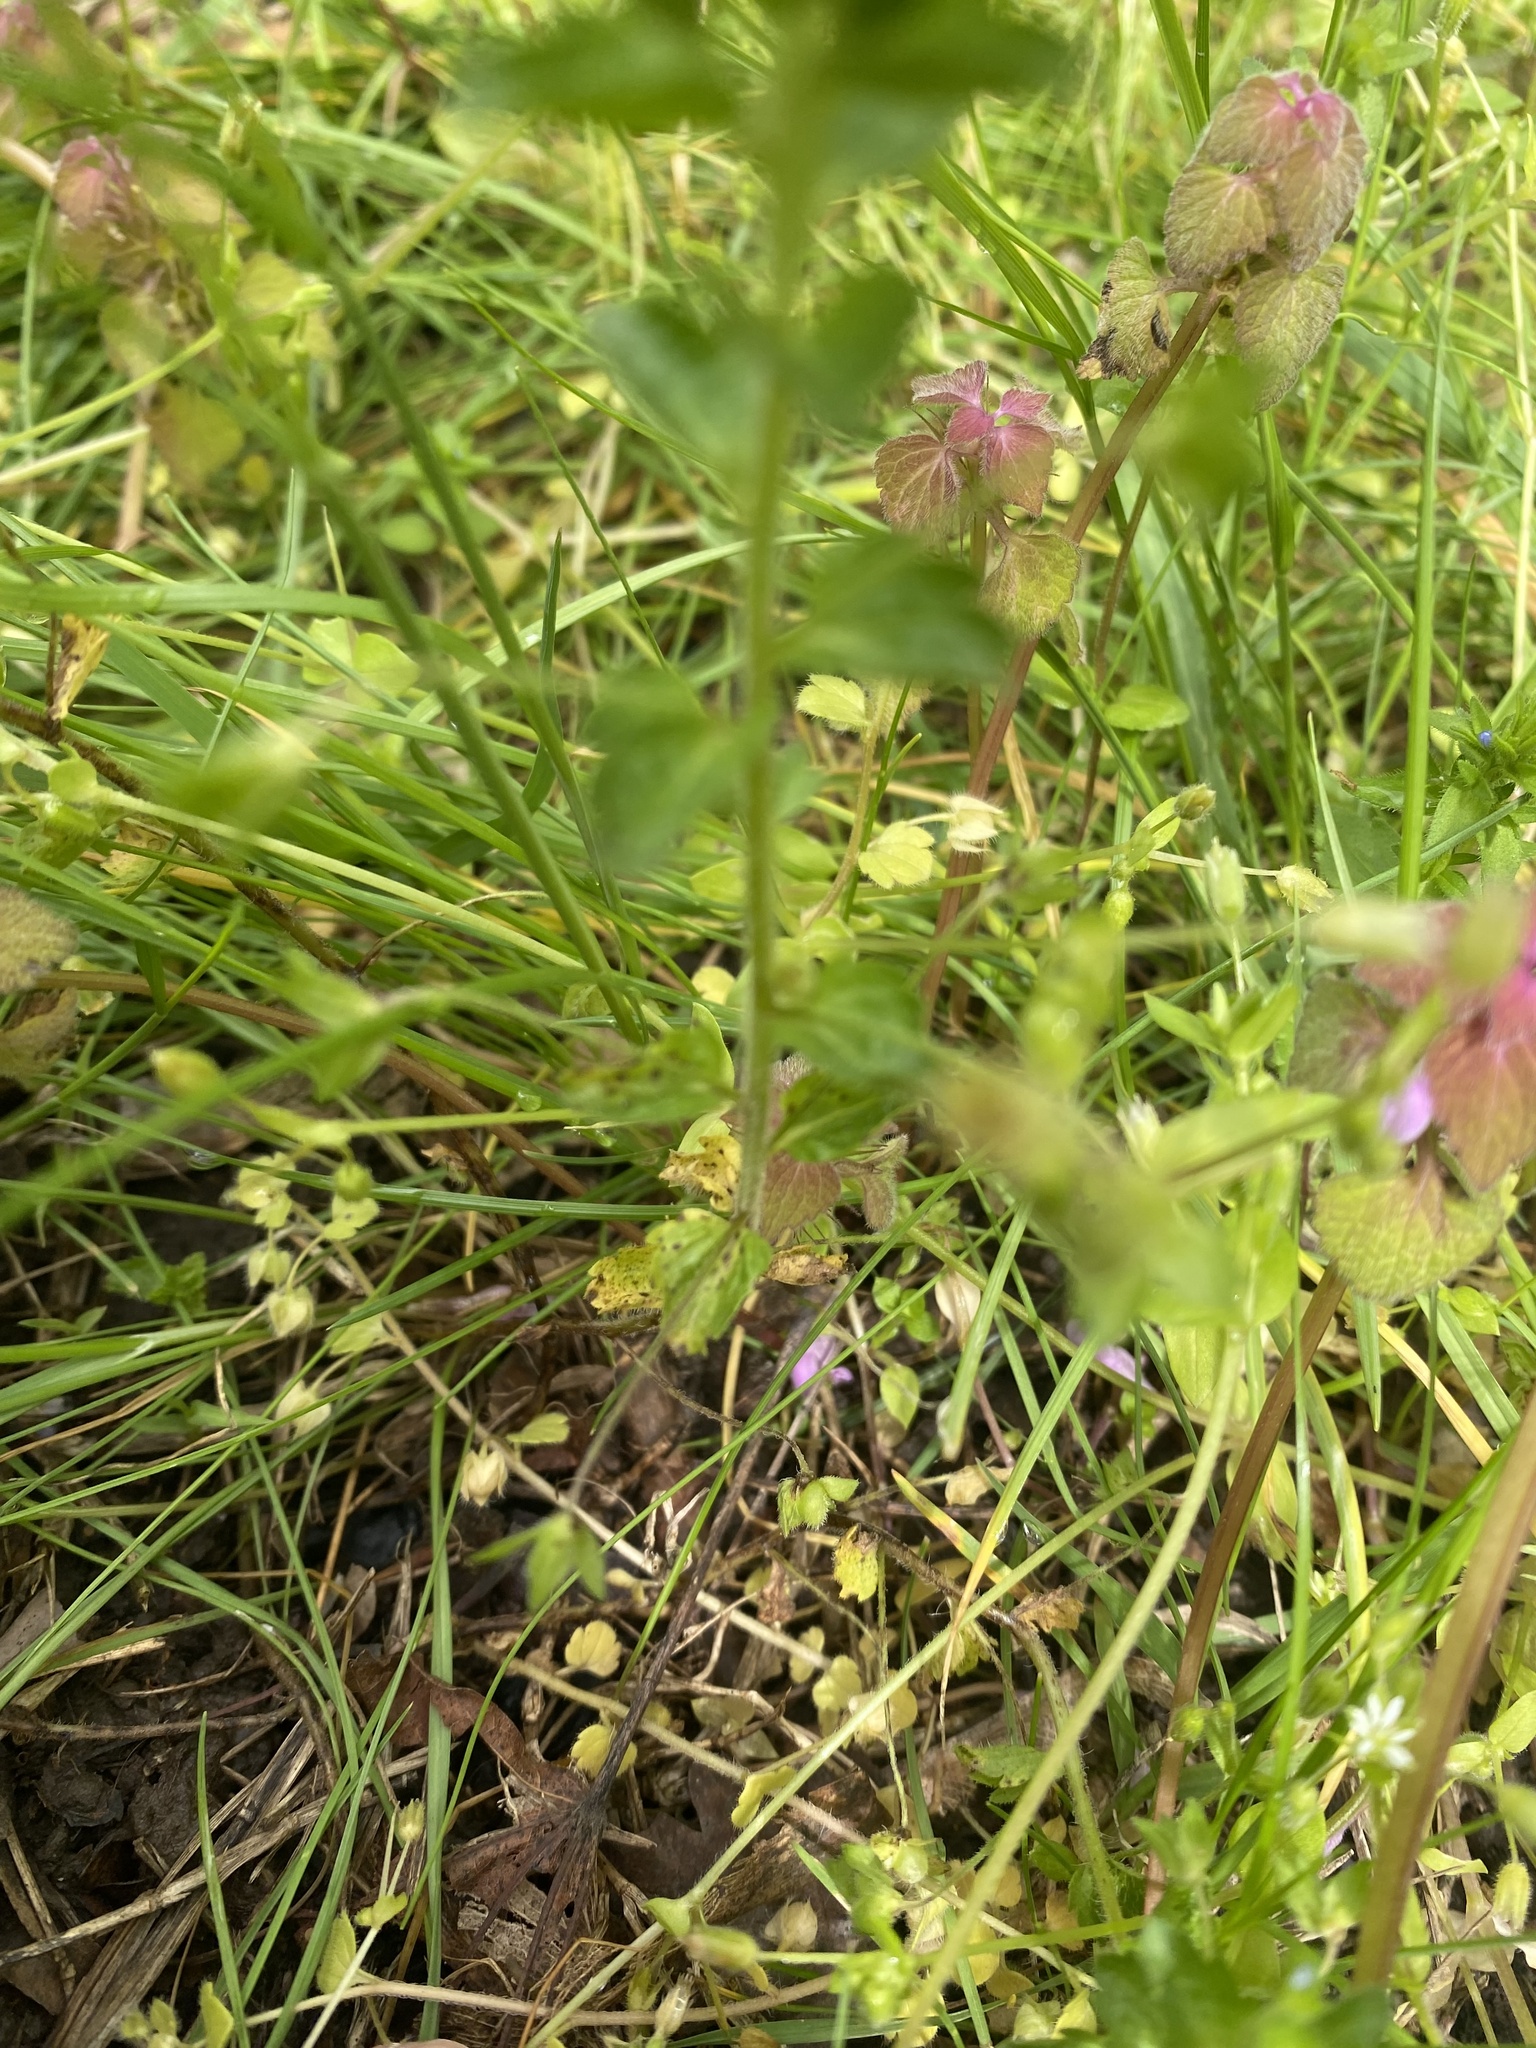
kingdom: Plantae
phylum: Tracheophyta
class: Magnoliopsida
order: Lamiales
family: Plantaginaceae
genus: Veronica
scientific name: Veronica persica
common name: Common field-speedwell
